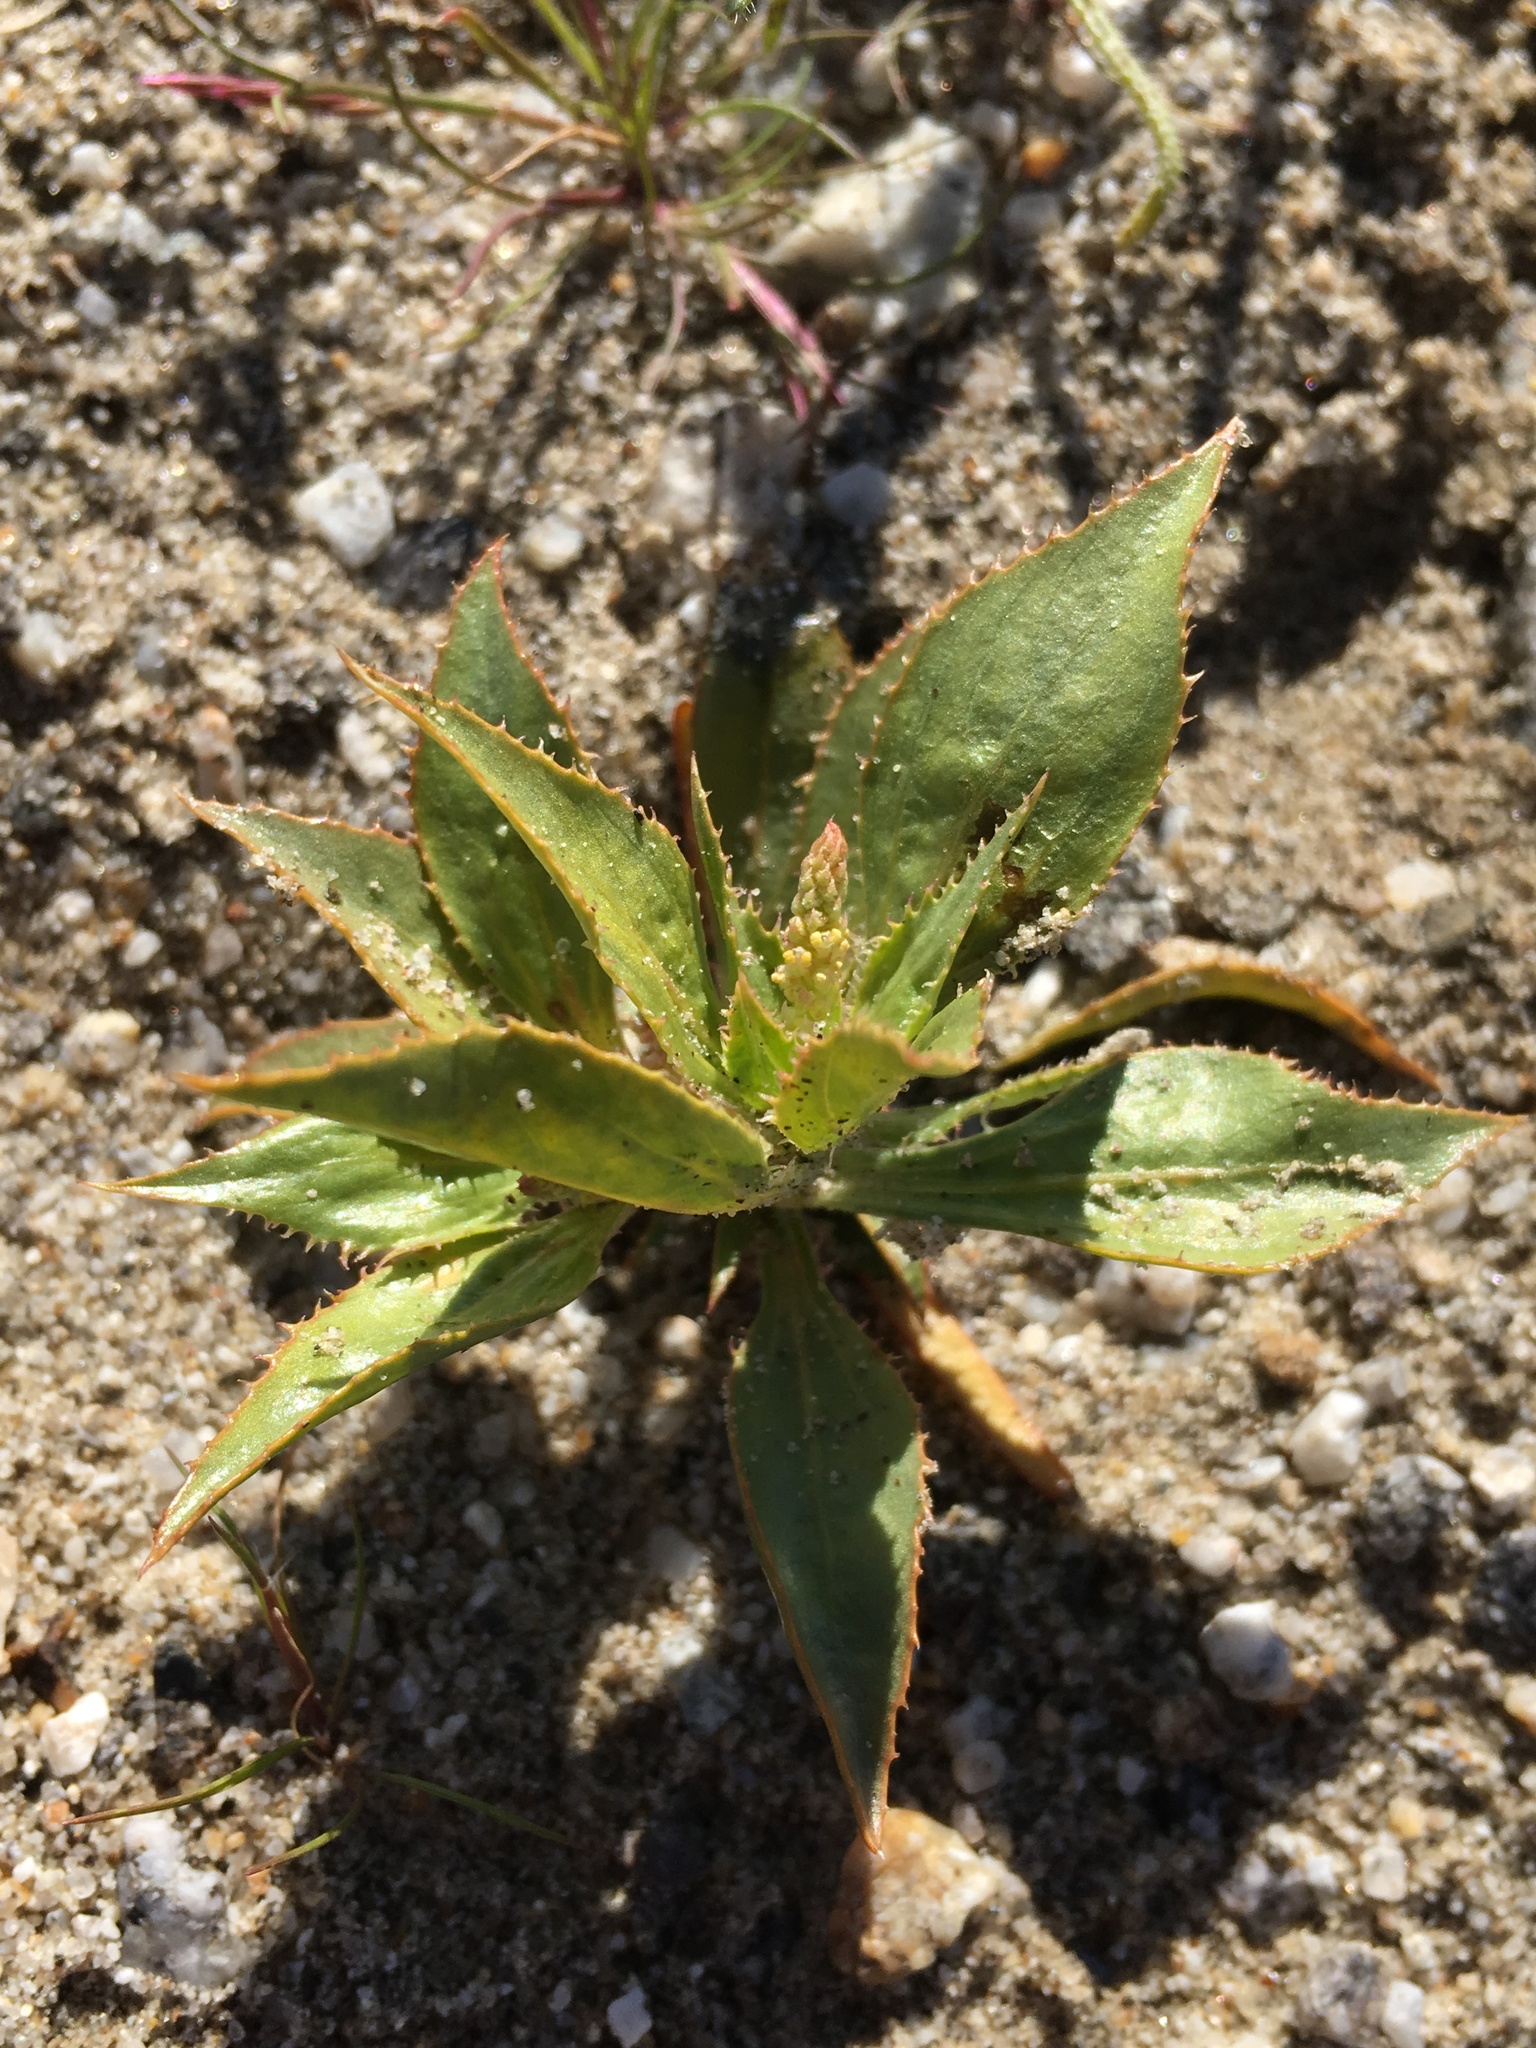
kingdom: Plantae
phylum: Tracheophyta
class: Magnoliopsida
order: Malpighiales
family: Euphorbiaceae
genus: Stillingia
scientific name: Stillingia spinulosa
